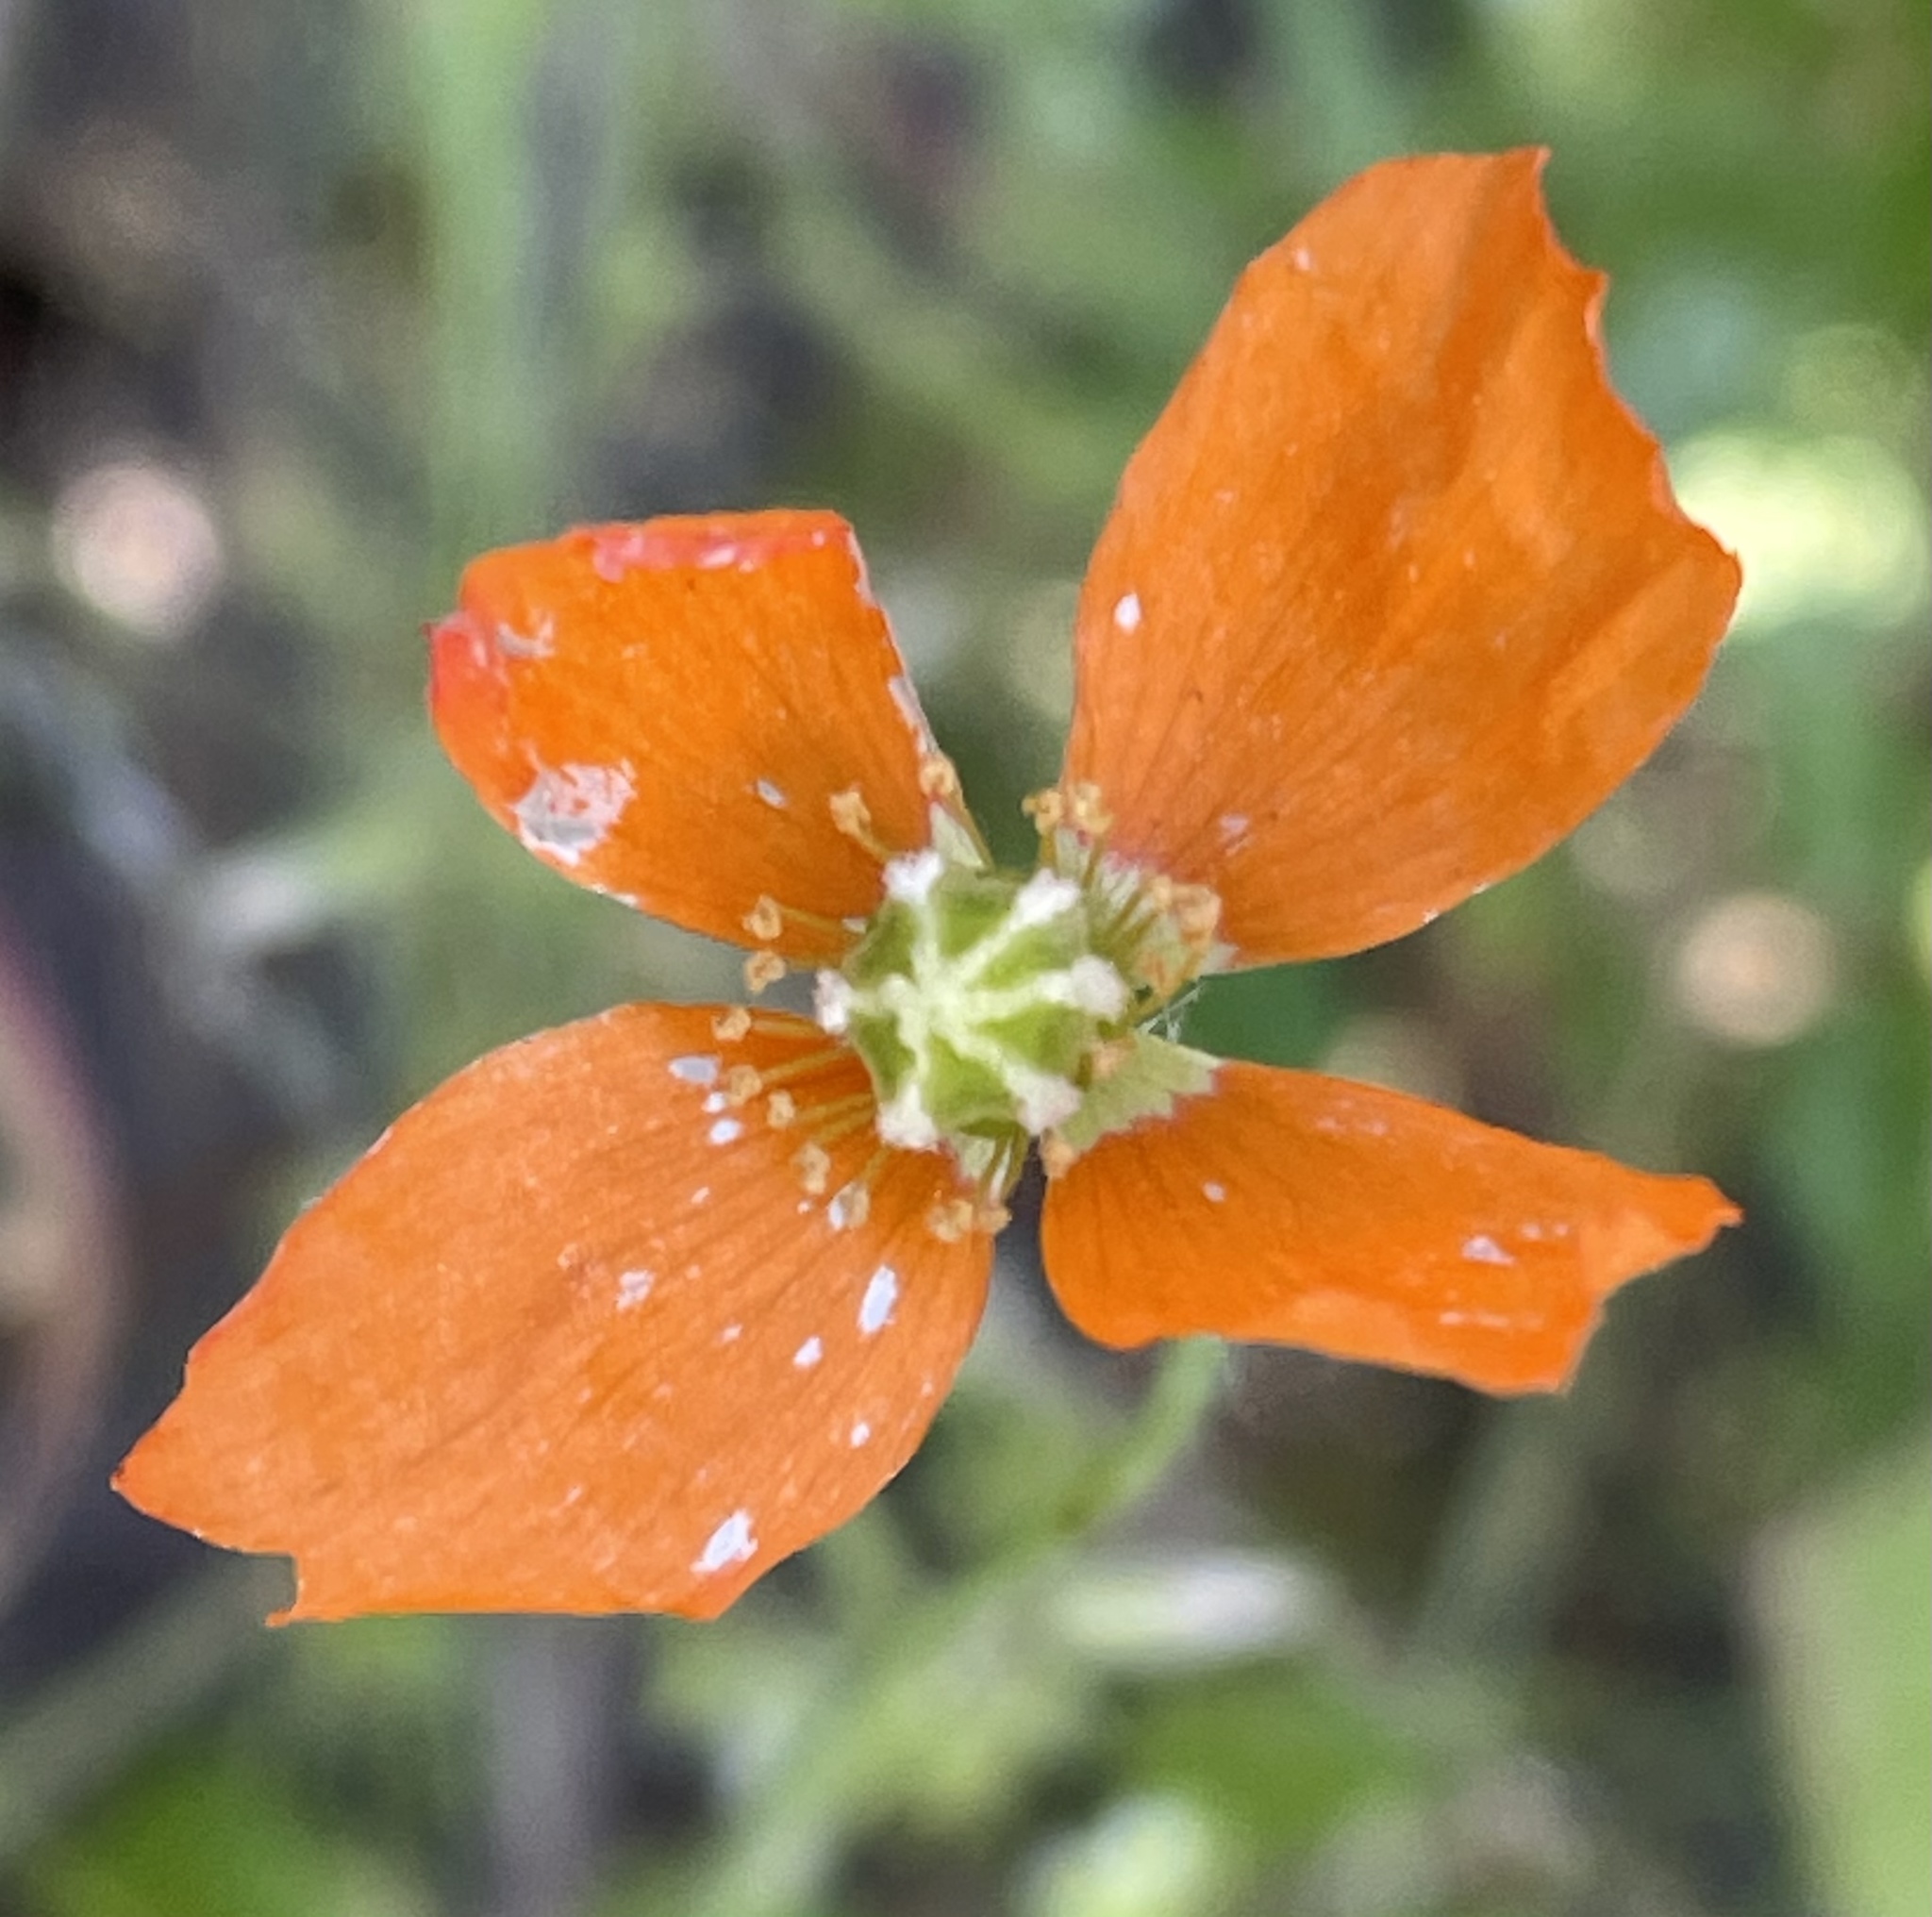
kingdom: Plantae
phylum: Tracheophyta
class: Magnoliopsida
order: Ranunculales
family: Papaveraceae
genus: Papaver
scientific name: Papaver californicum
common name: Fire poppy
